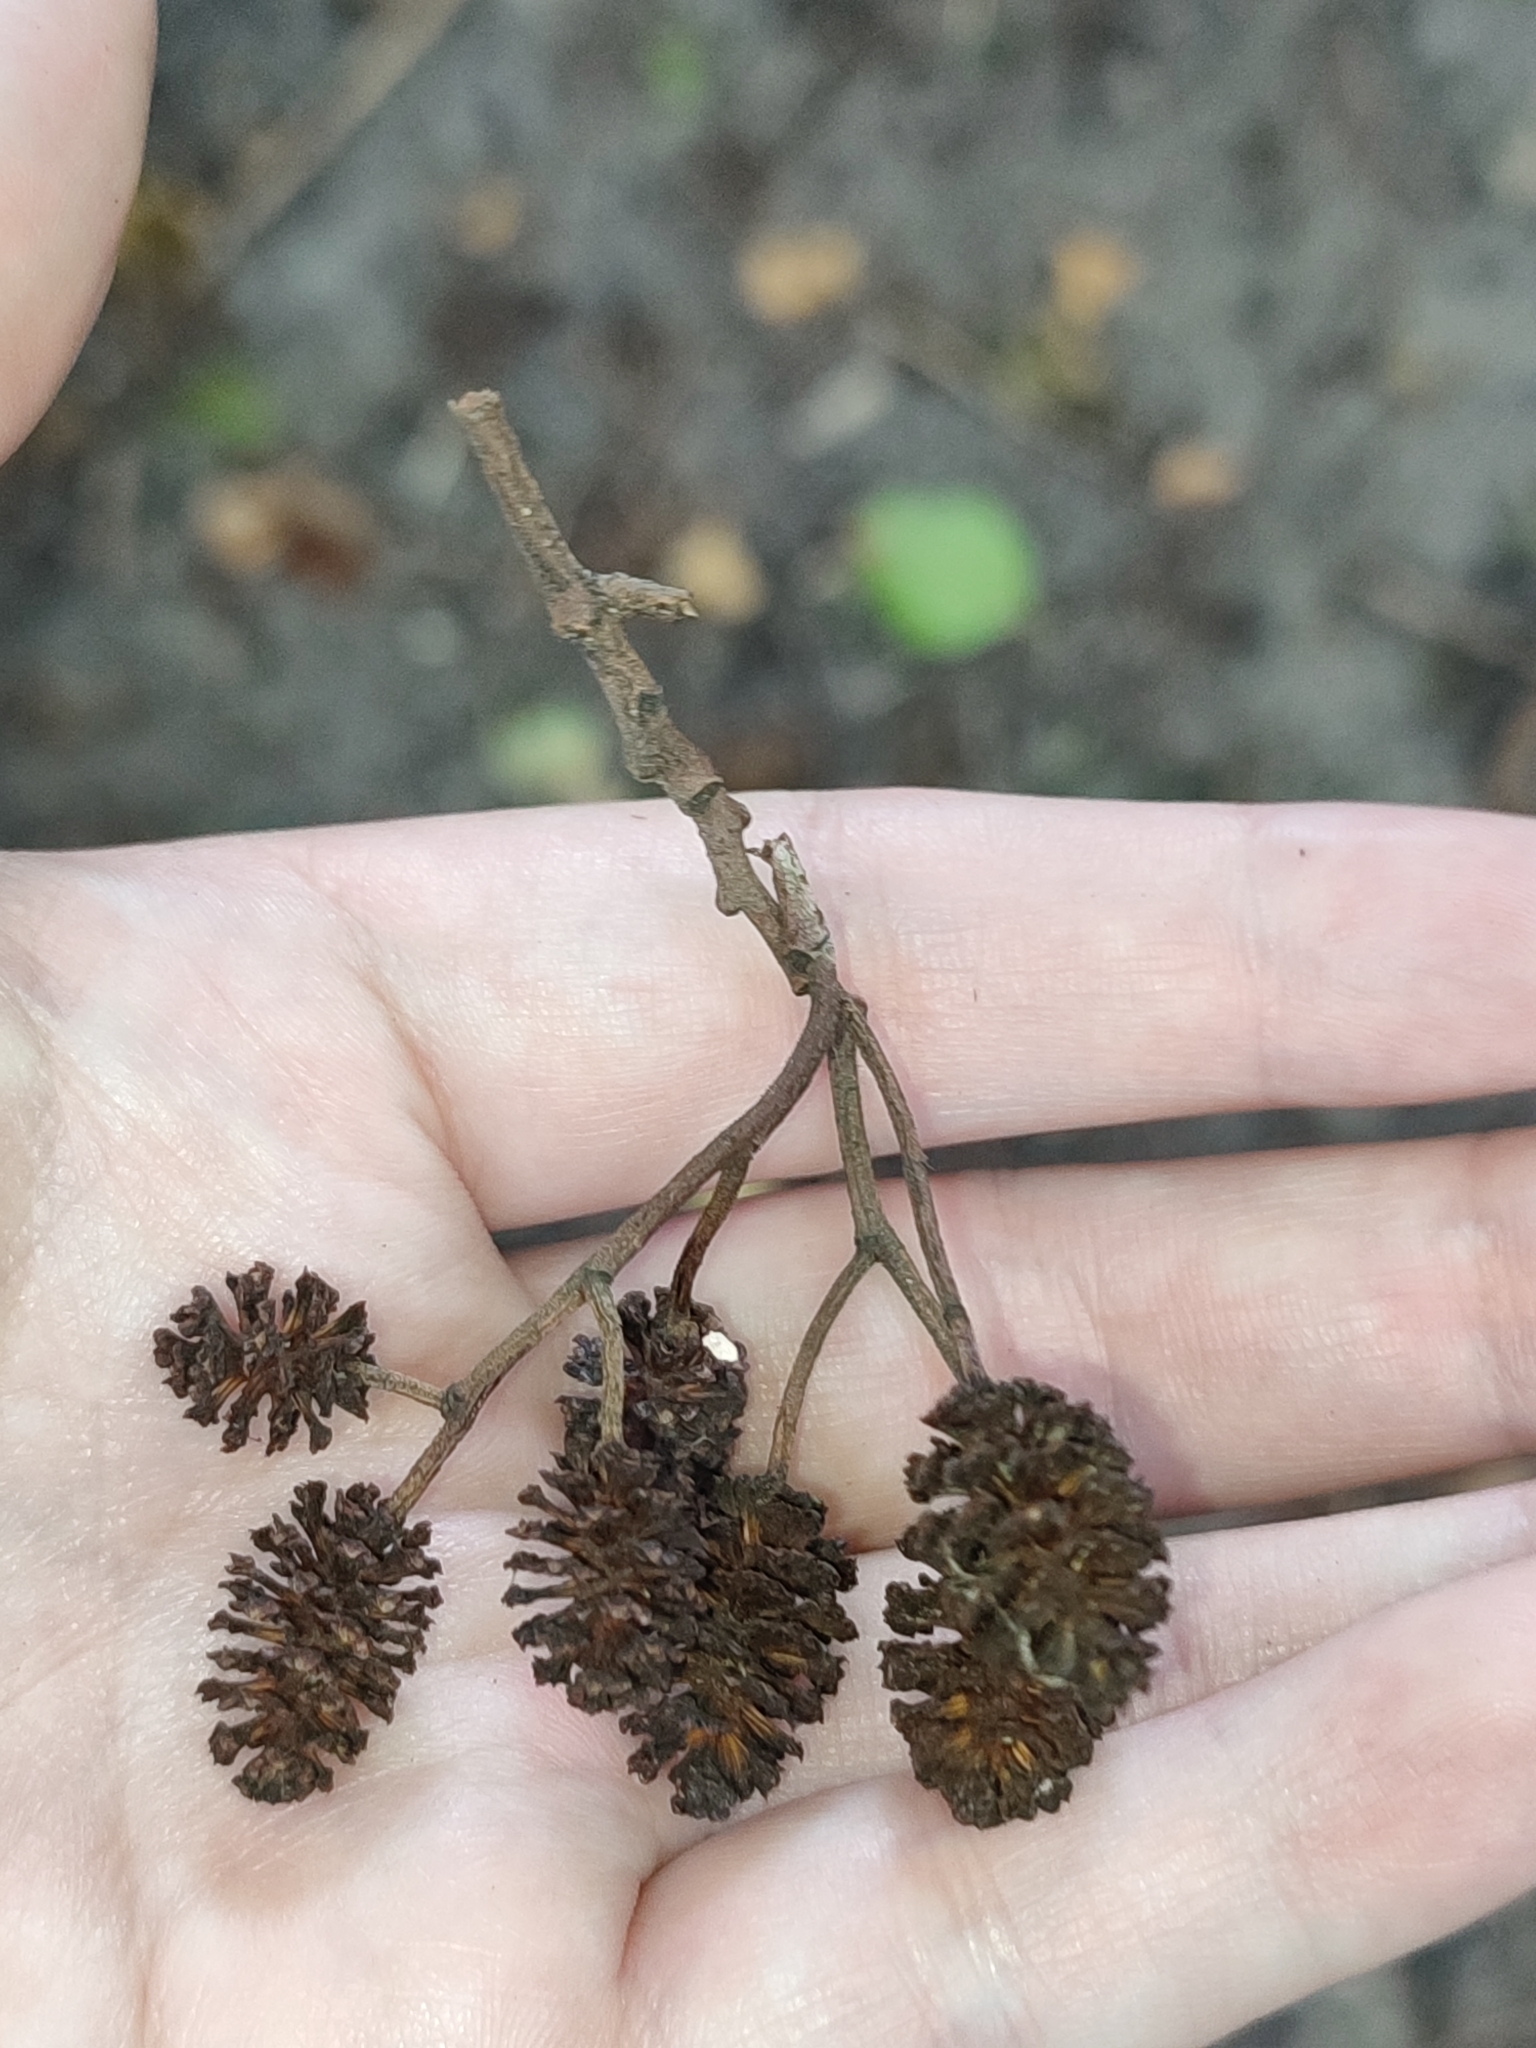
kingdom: Plantae
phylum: Tracheophyta
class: Magnoliopsida
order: Fagales
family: Betulaceae
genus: Alnus
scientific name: Alnus glutinosa
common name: Black alder
